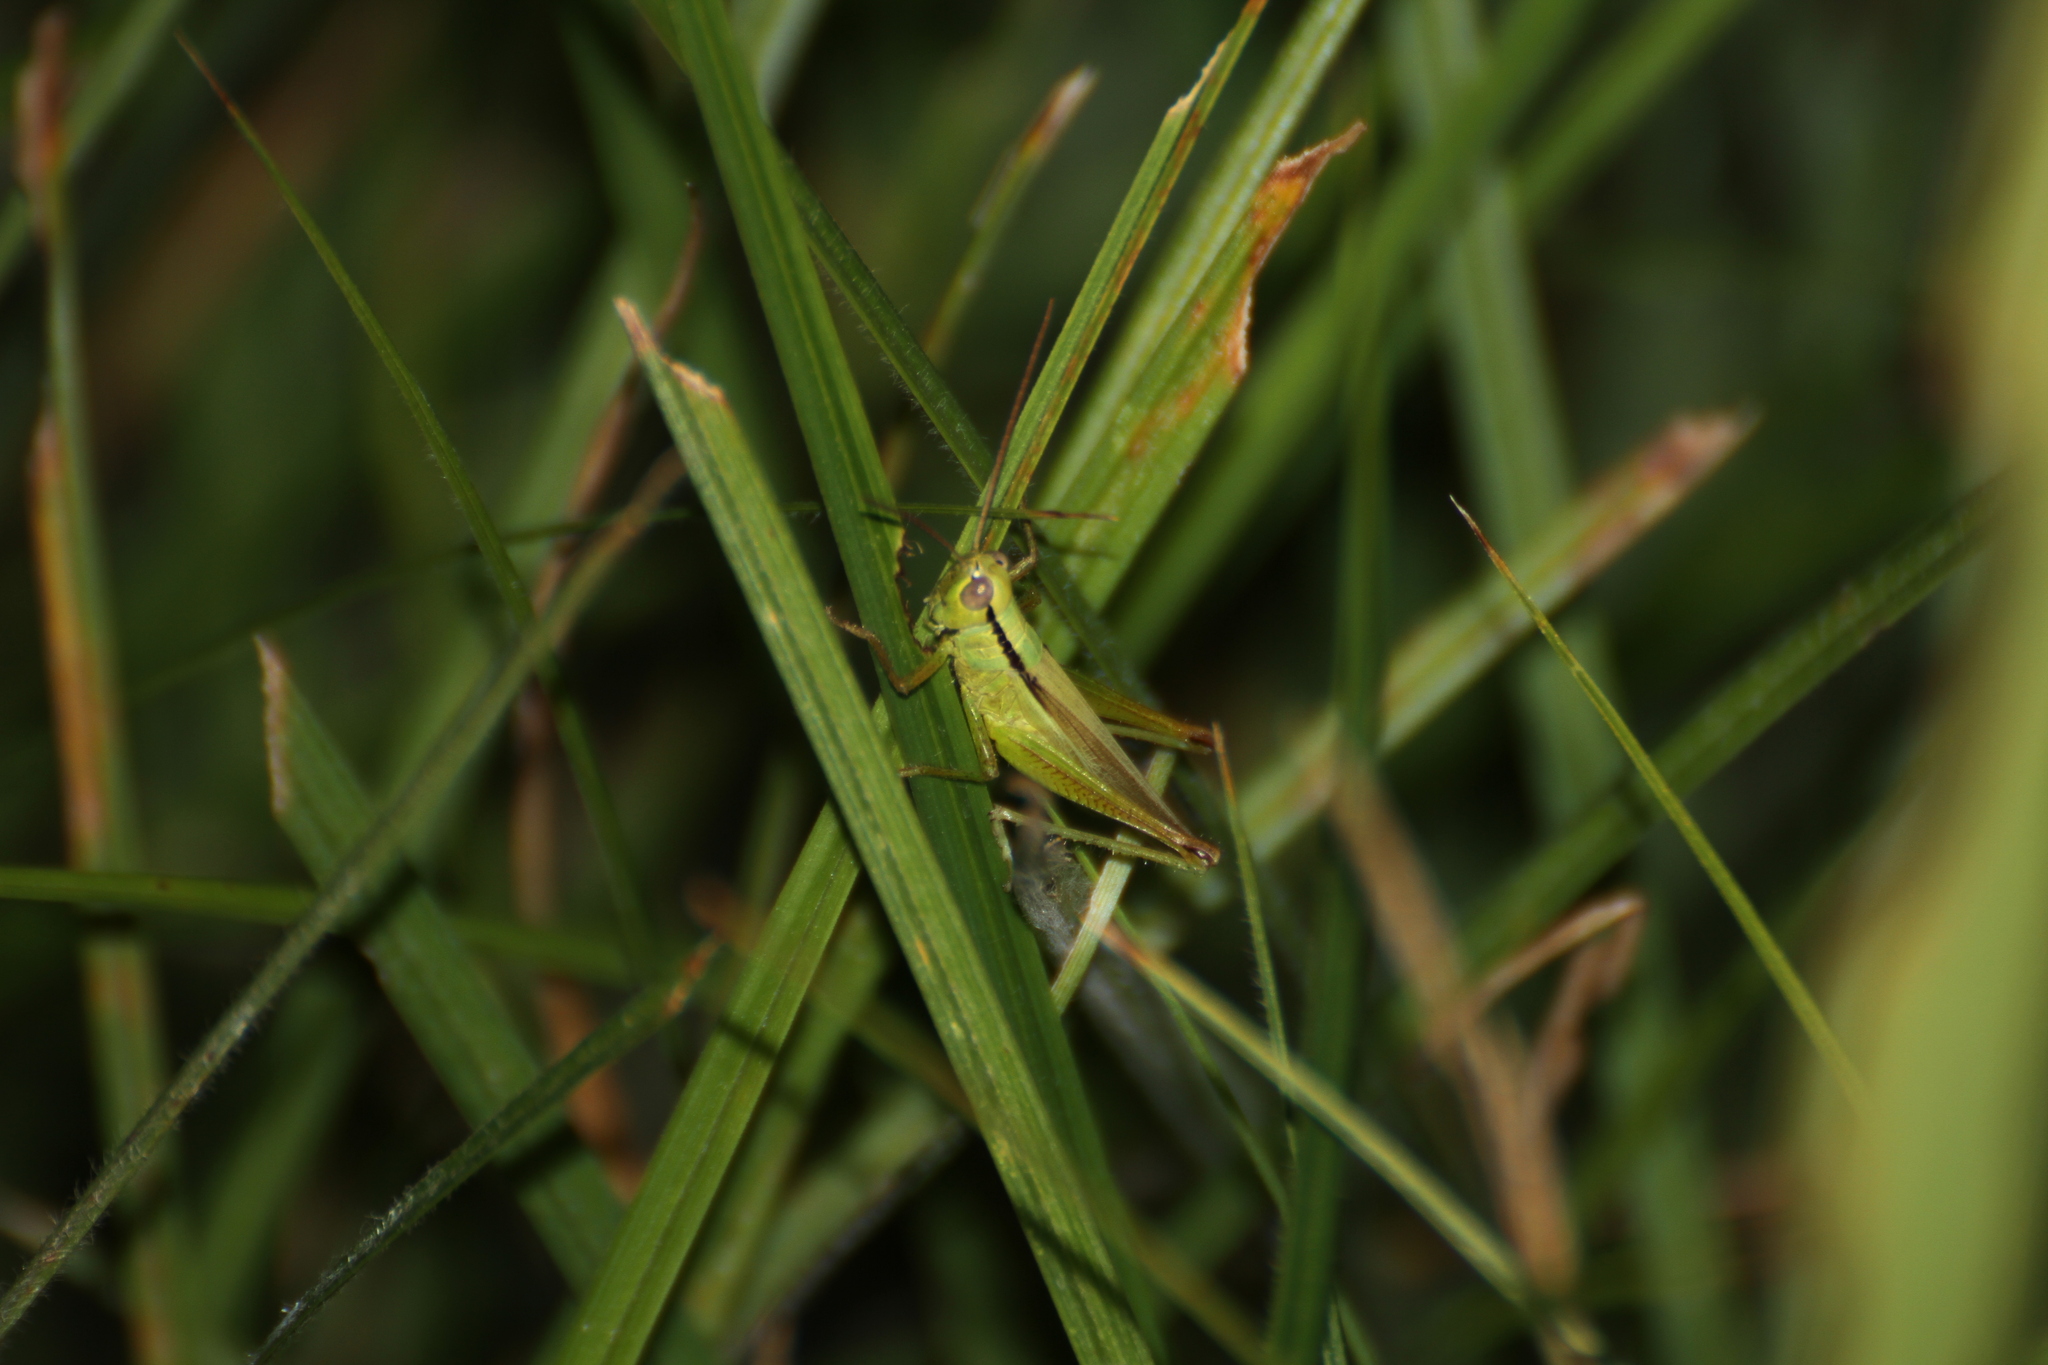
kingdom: Animalia
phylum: Arthropoda
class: Insecta
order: Orthoptera
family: Acrididae
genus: Mecostethus
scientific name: Mecostethus parapleurus
